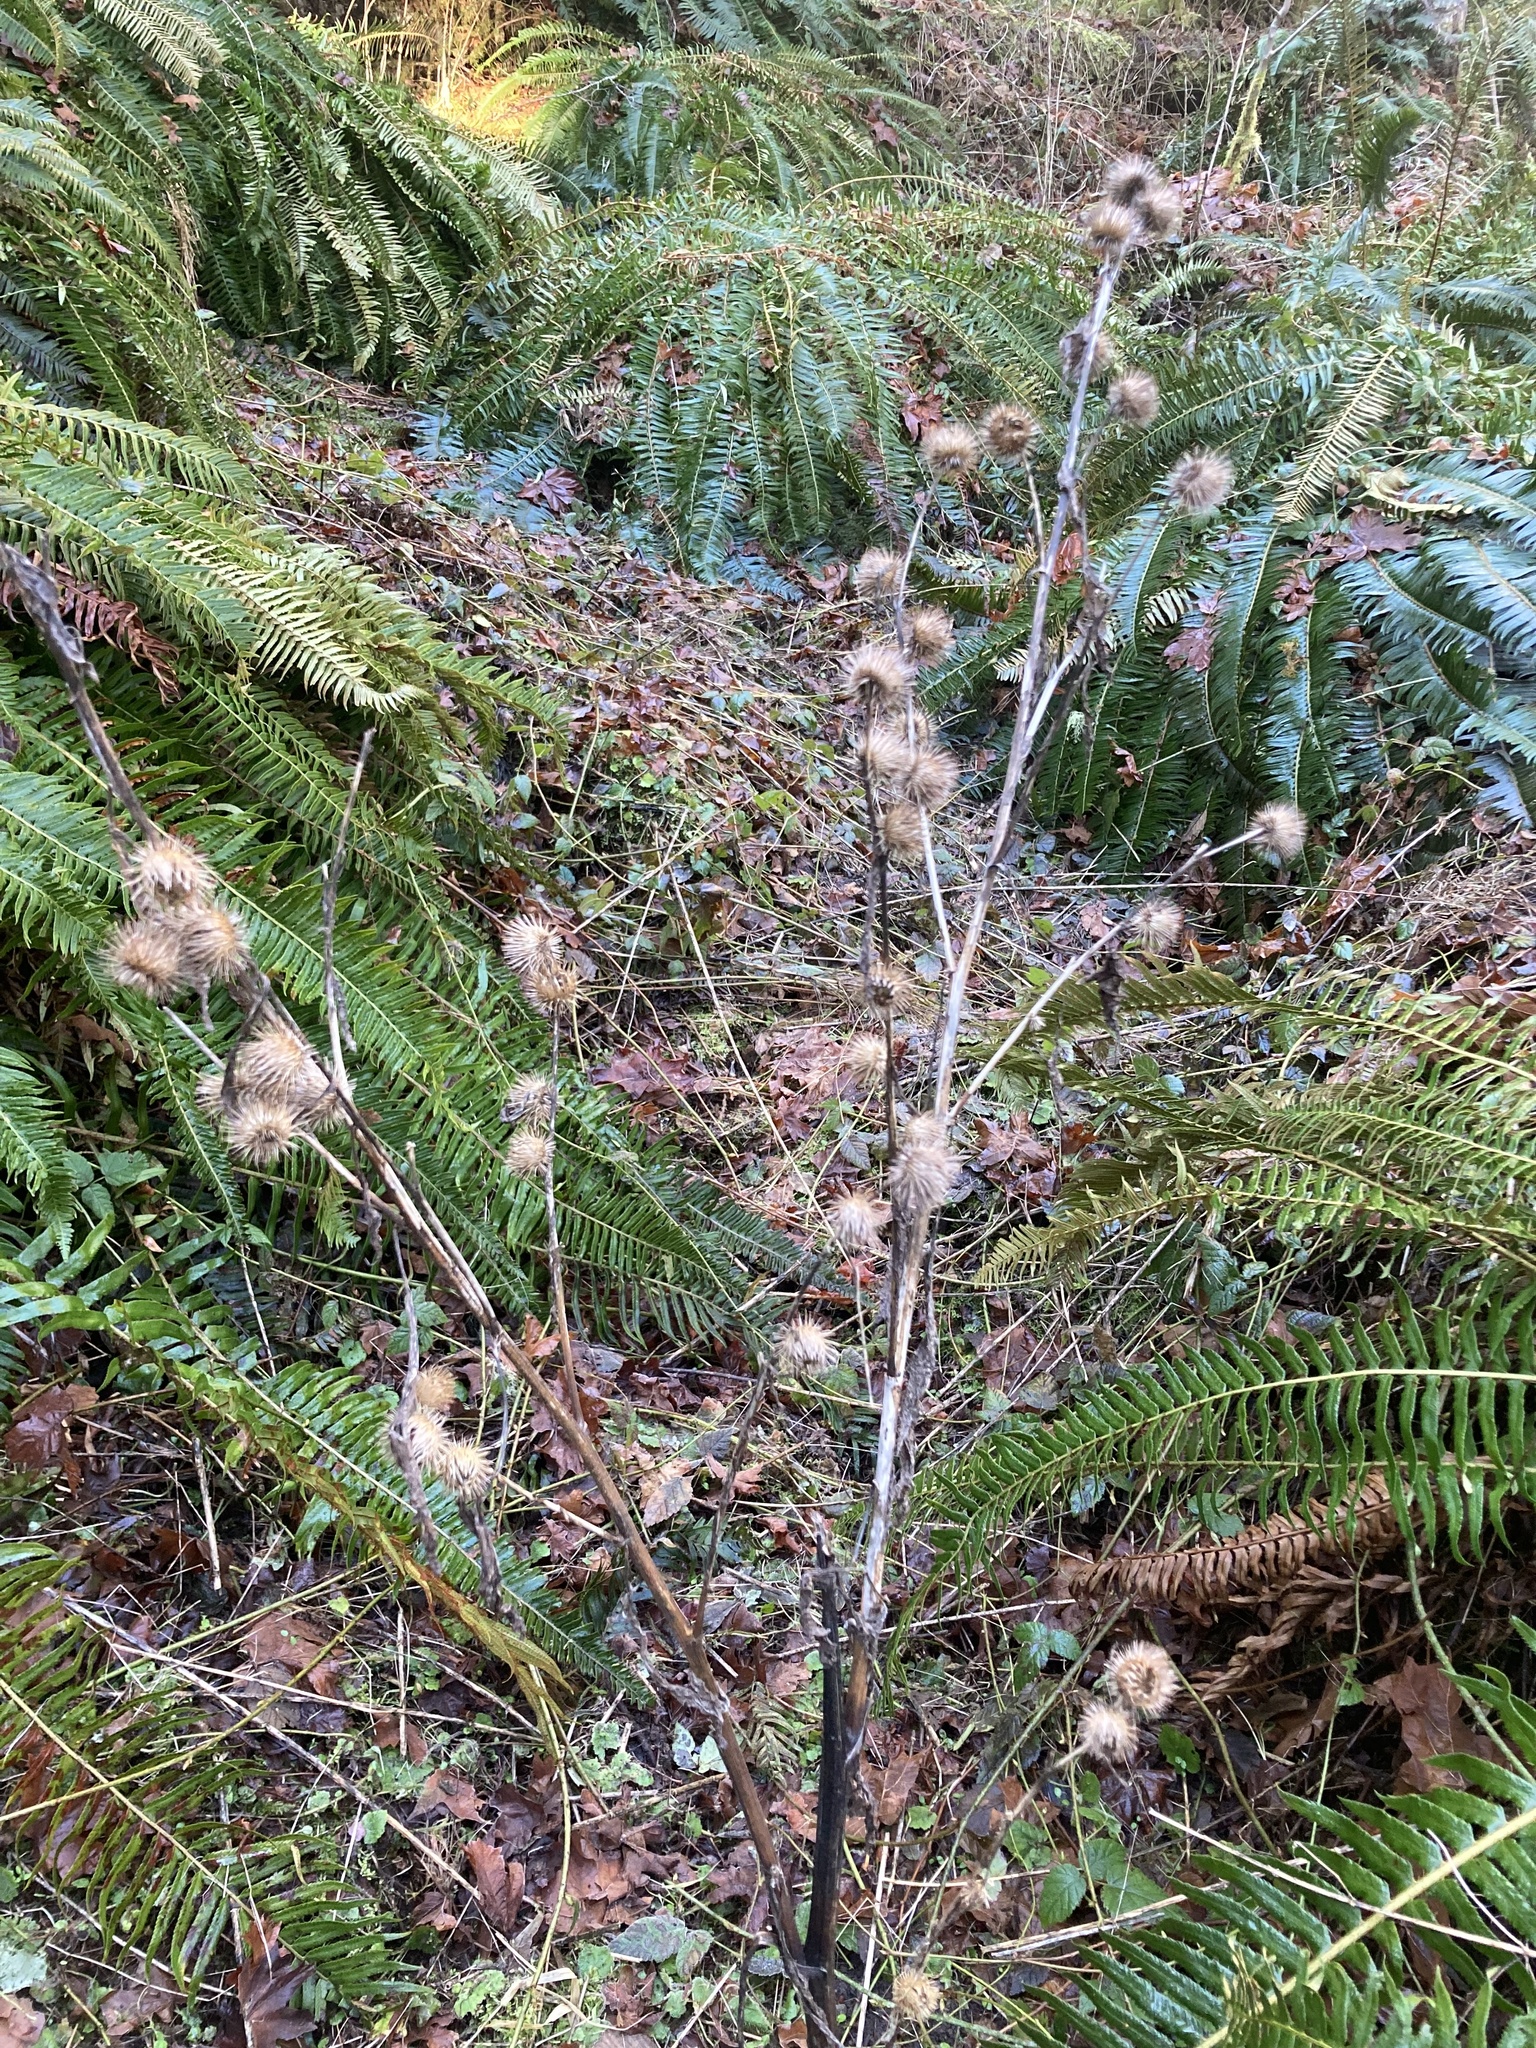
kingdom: Plantae
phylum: Tracheophyta
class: Magnoliopsida
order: Asterales
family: Asteraceae
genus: Arctium
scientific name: Arctium lappa
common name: Greater burdock
